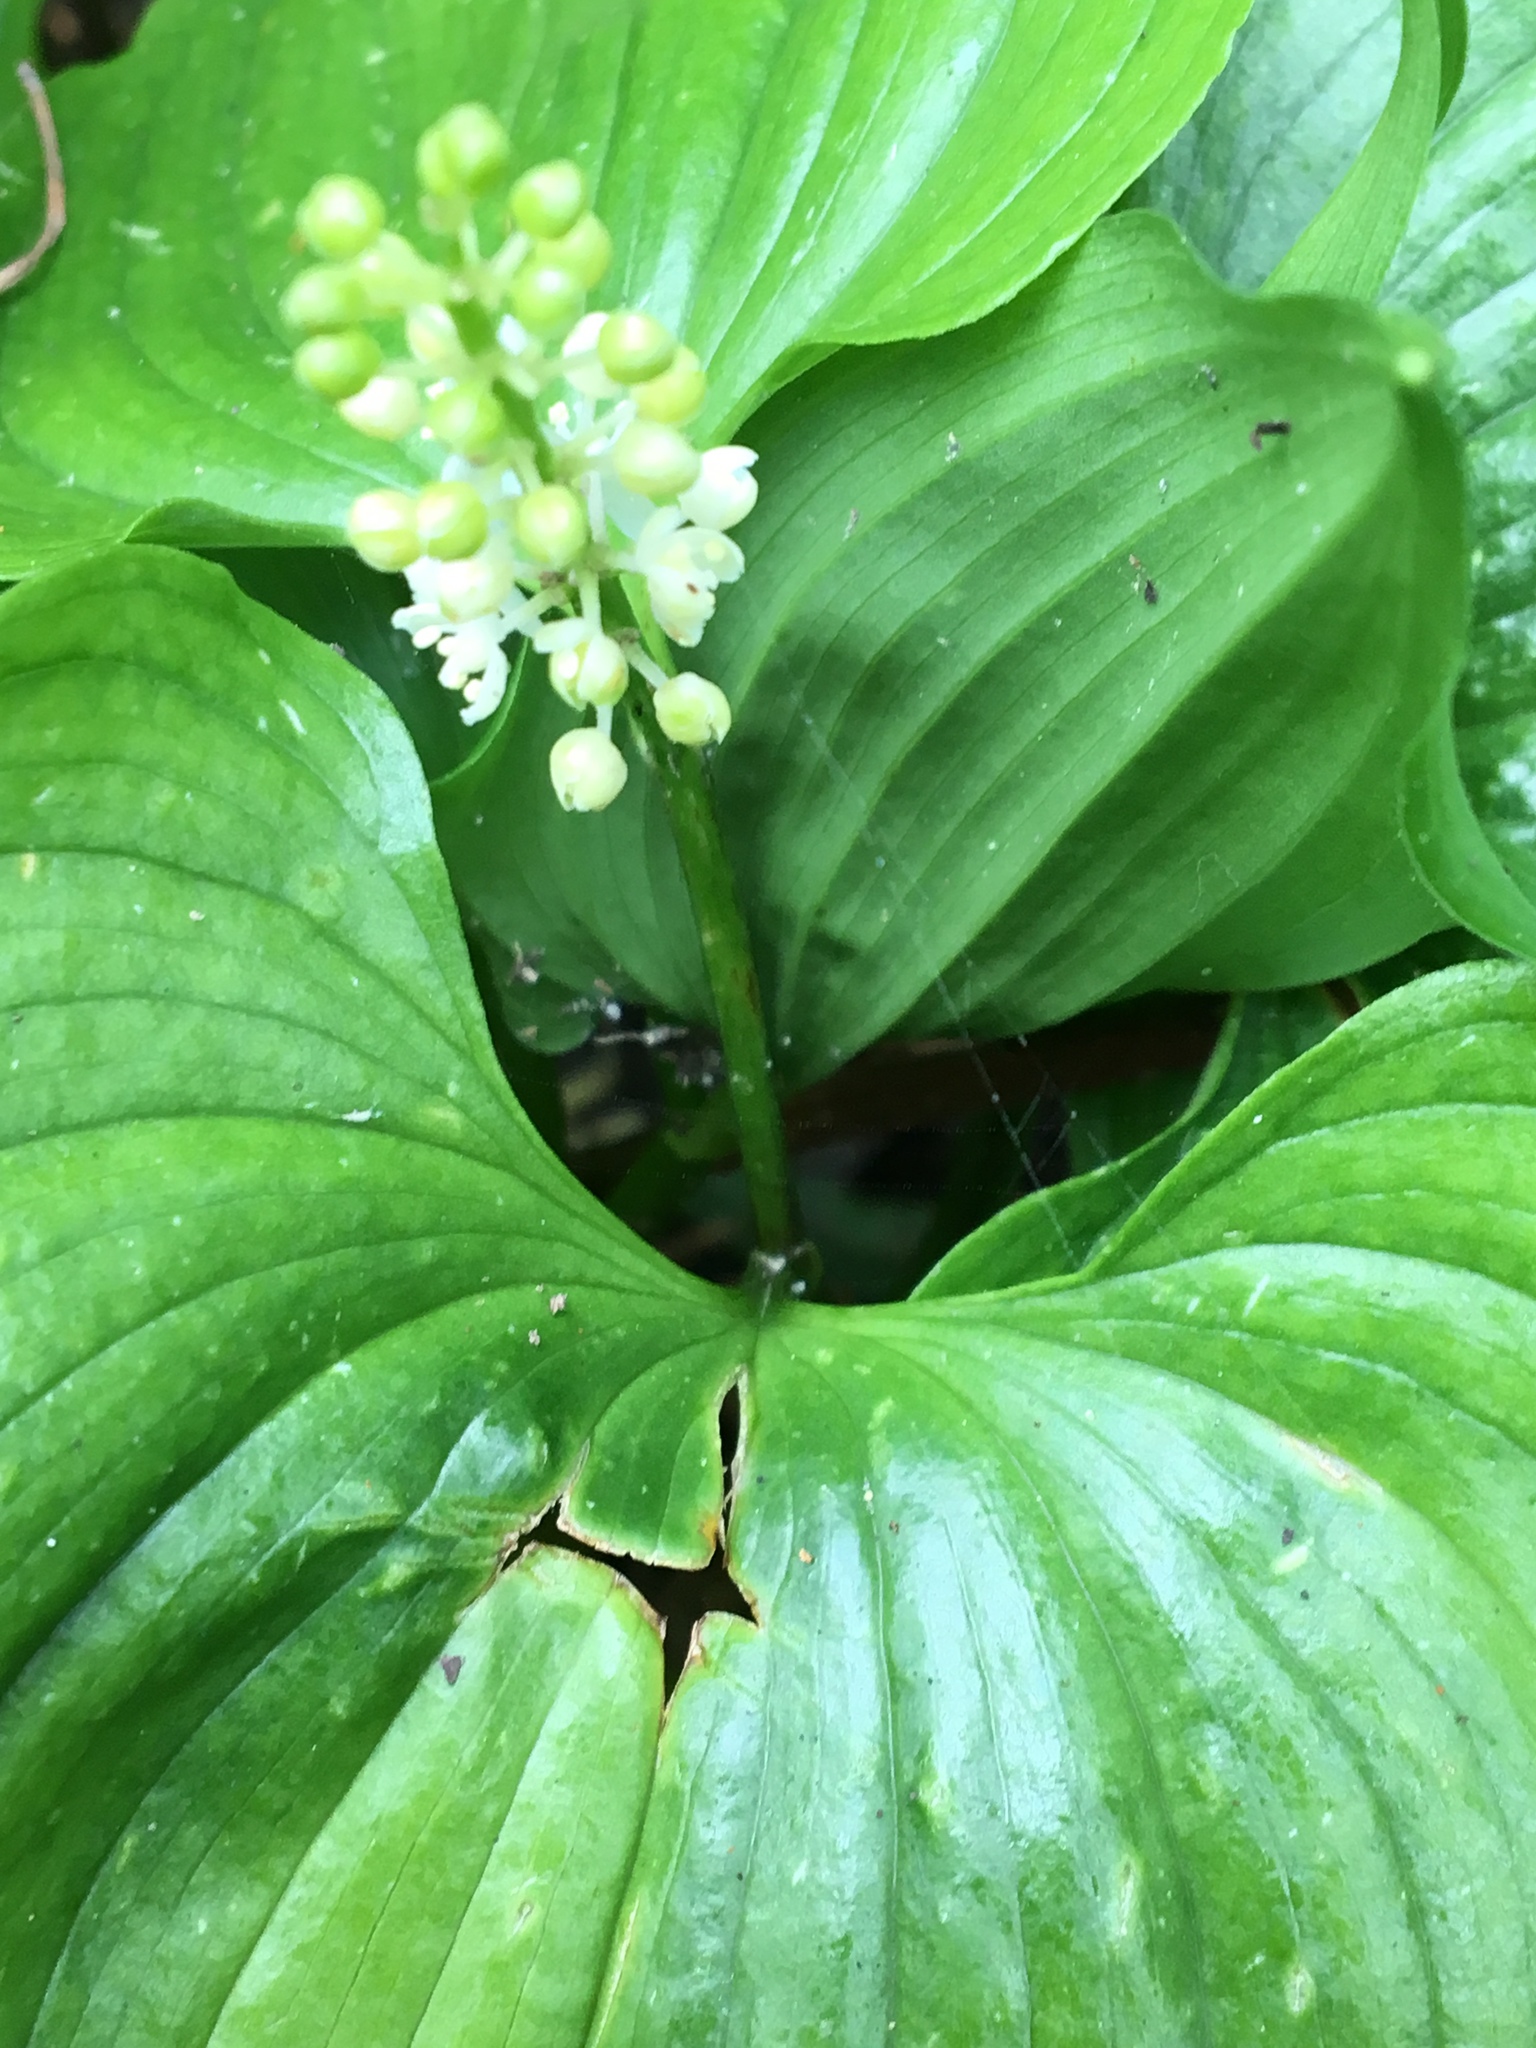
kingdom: Plantae
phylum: Tracheophyta
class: Liliopsida
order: Asparagales
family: Asparagaceae
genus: Maianthemum
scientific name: Maianthemum dilatatum
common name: False lily-of-the-valley
